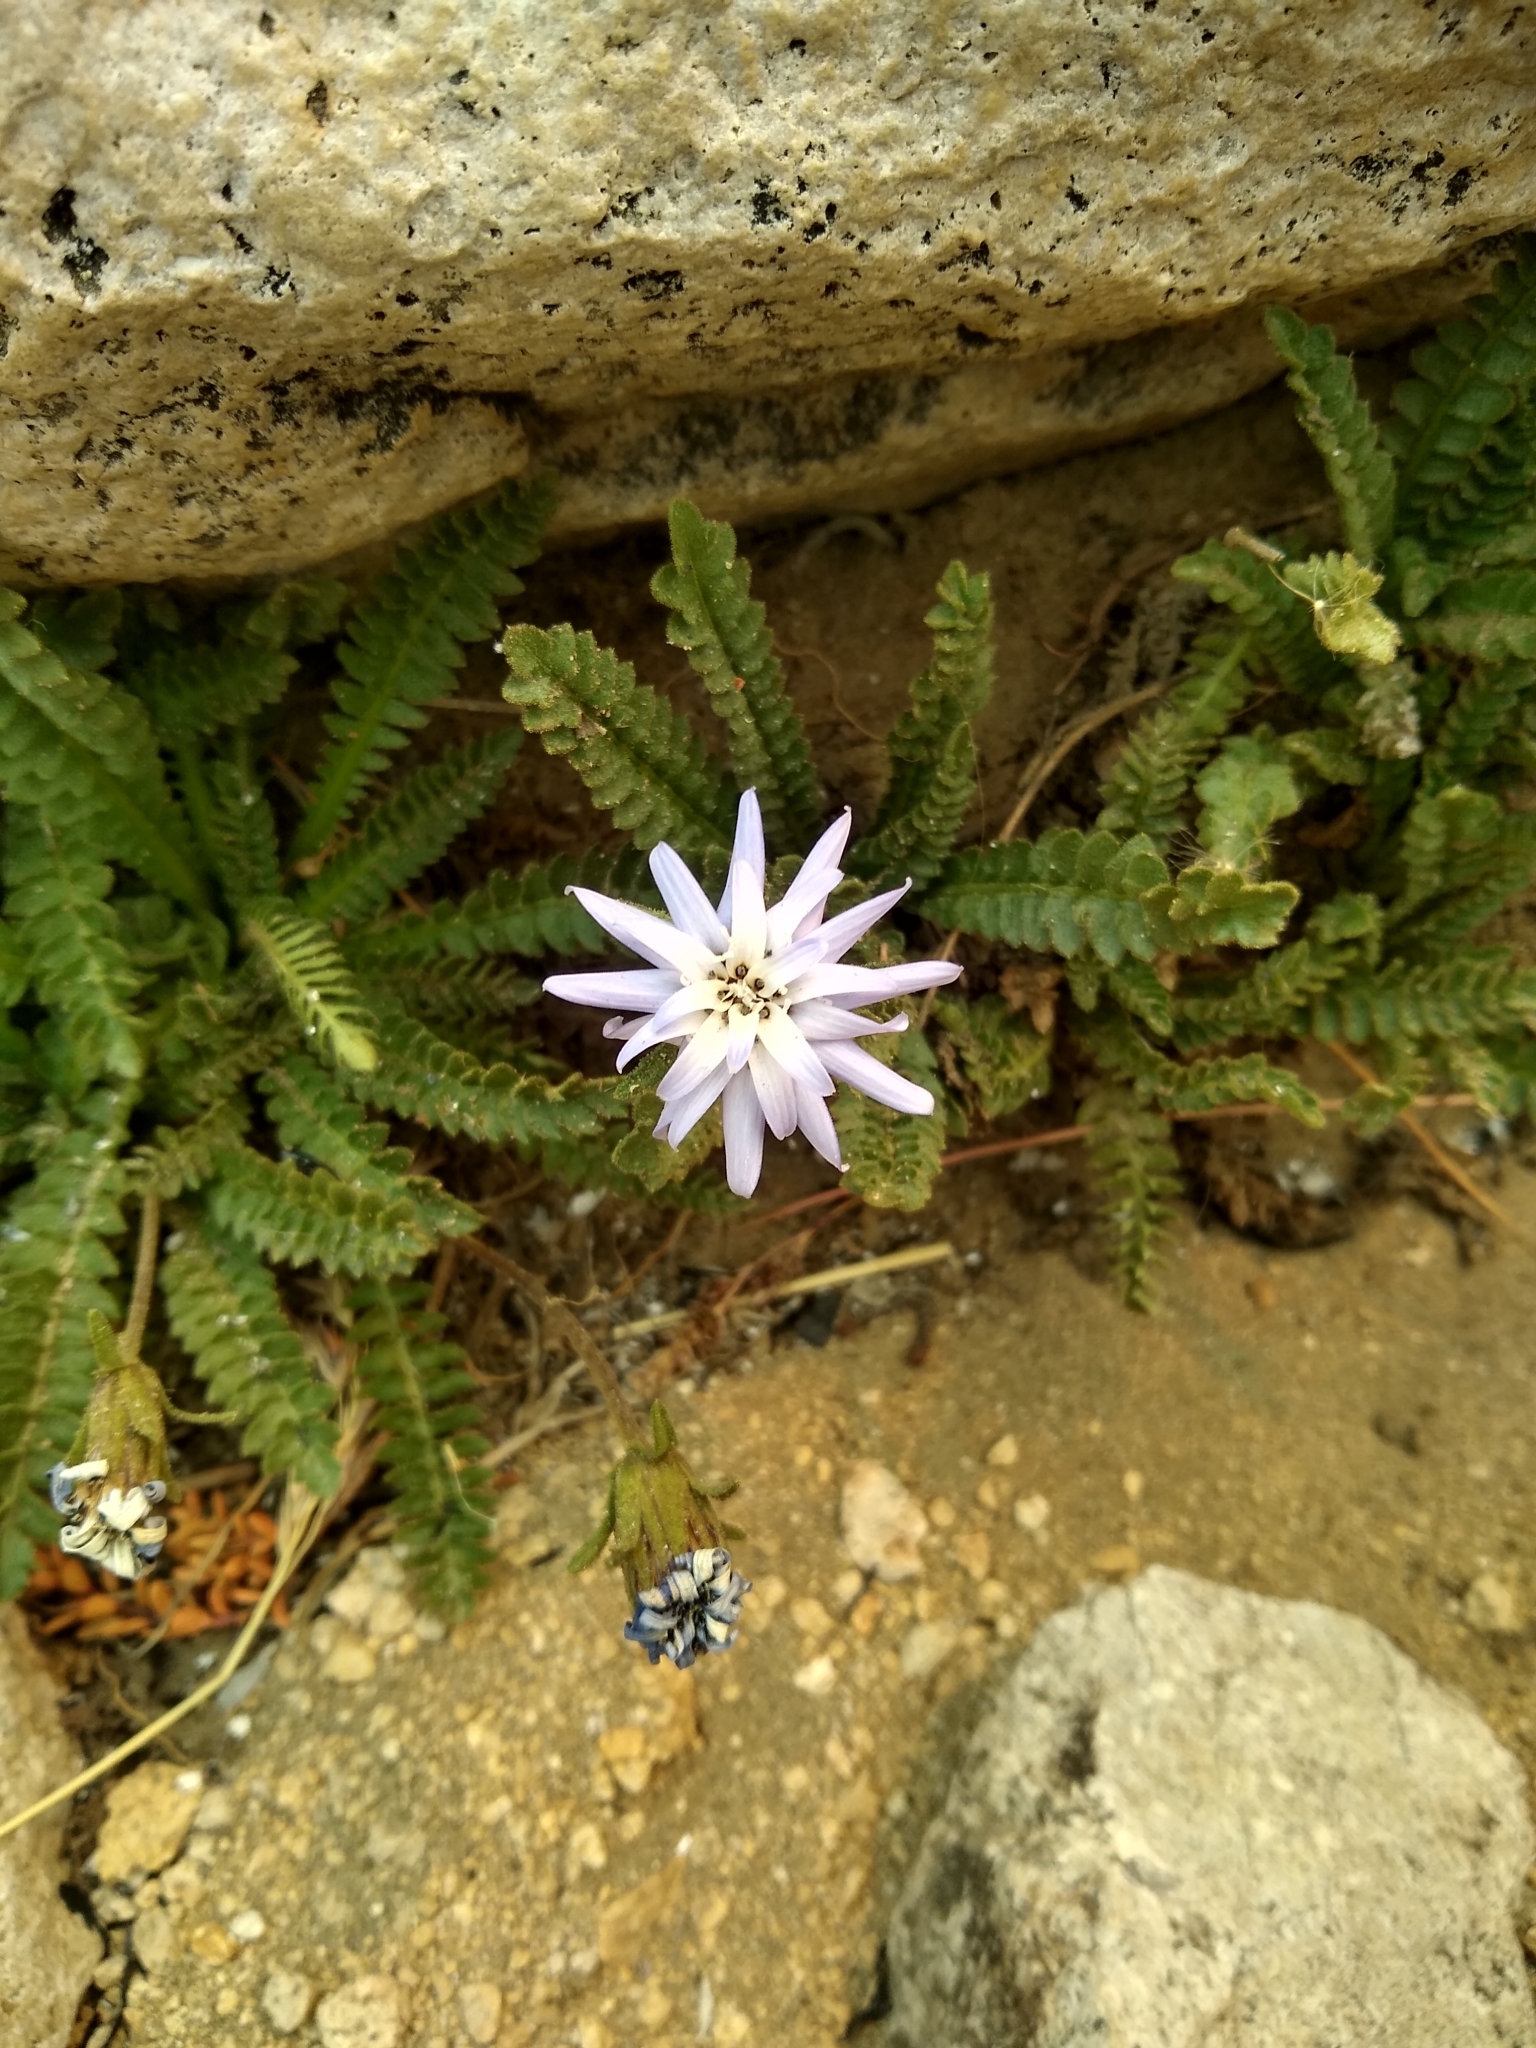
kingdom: Plantae
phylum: Tracheophyta
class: Magnoliopsida
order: Asterales
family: Asteraceae
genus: Perezia
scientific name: Perezia fonckii
